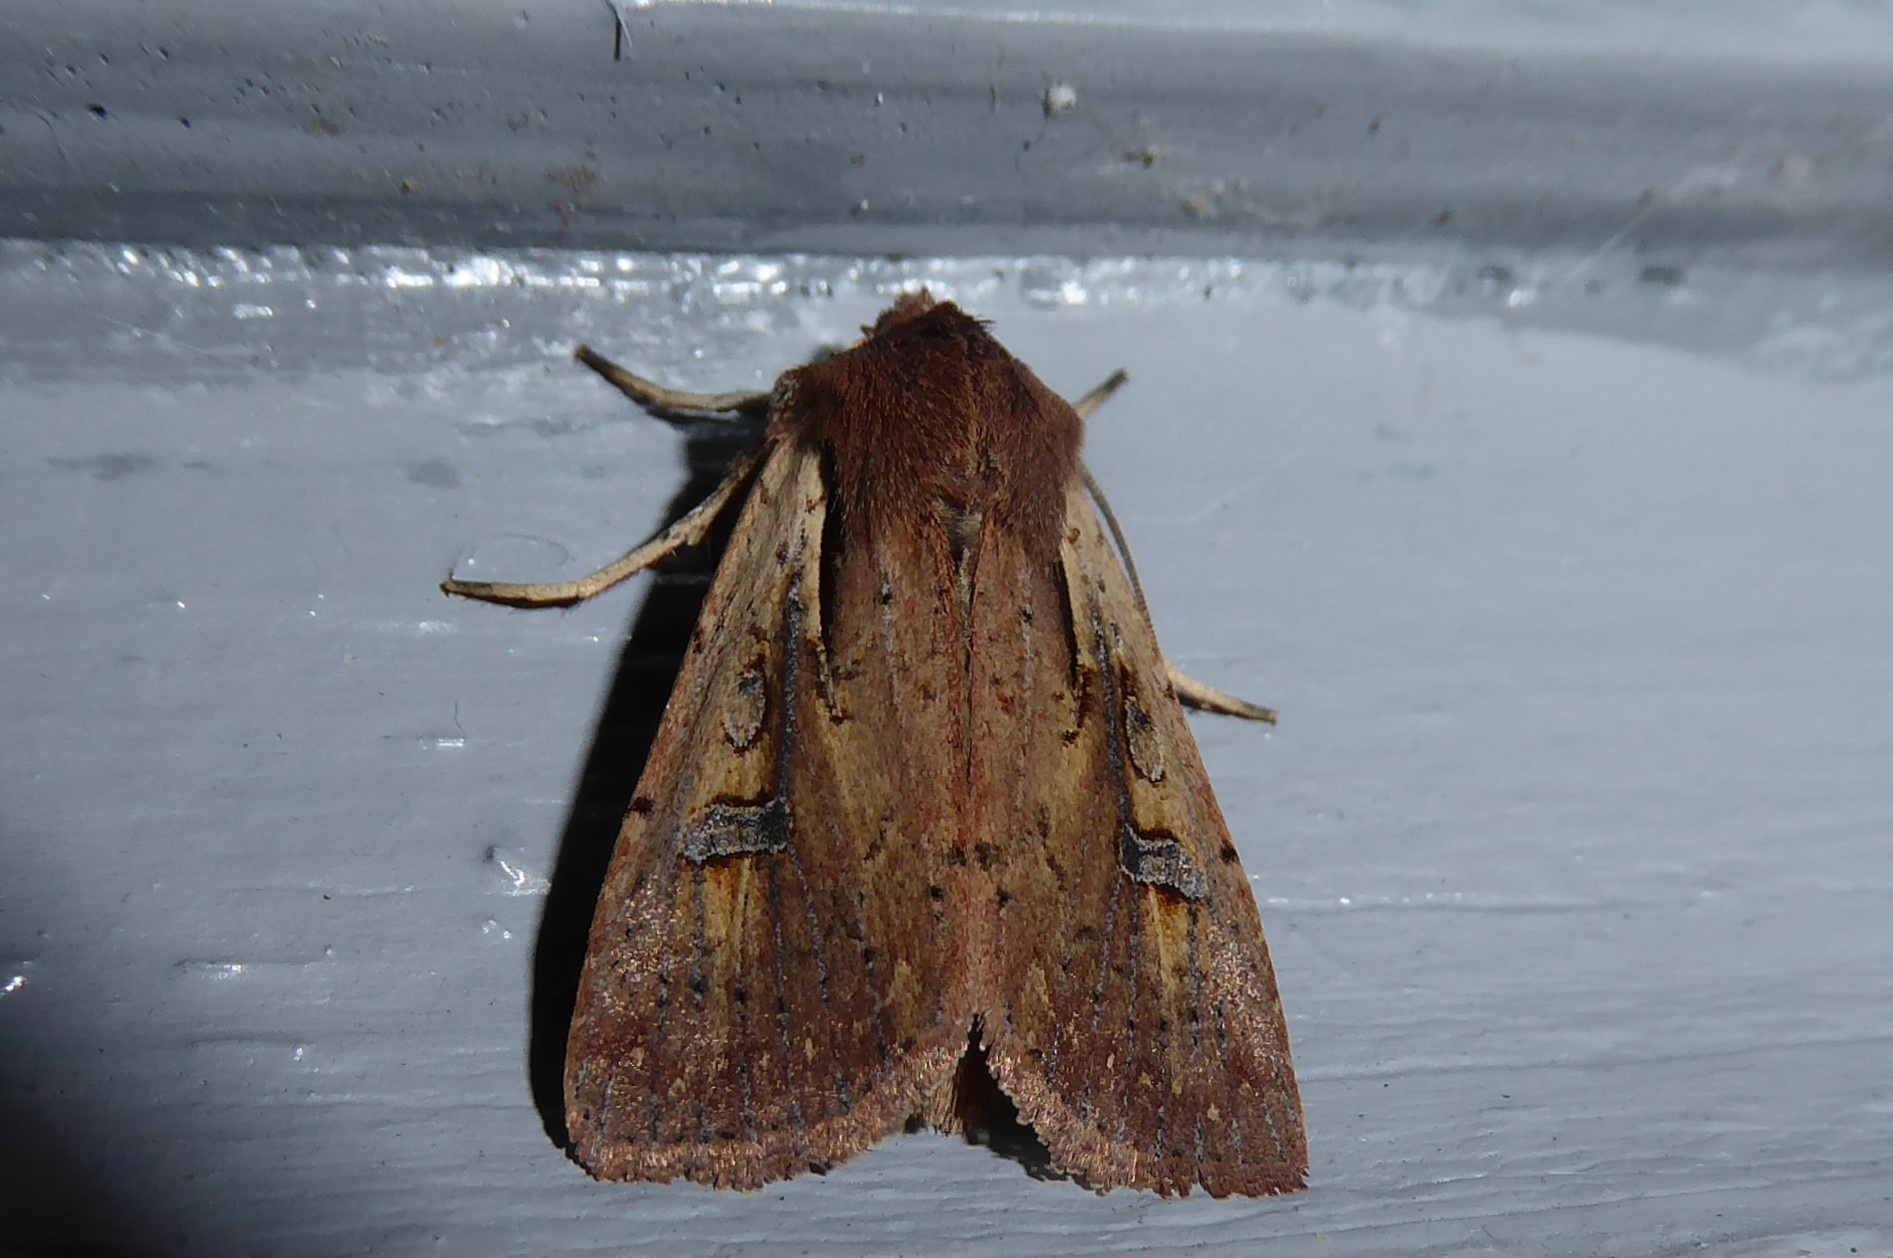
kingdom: Animalia
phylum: Arthropoda
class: Insecta
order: Lepidoptera
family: Noctuidae
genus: Ichneutica
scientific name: Ichneutica atristriga
